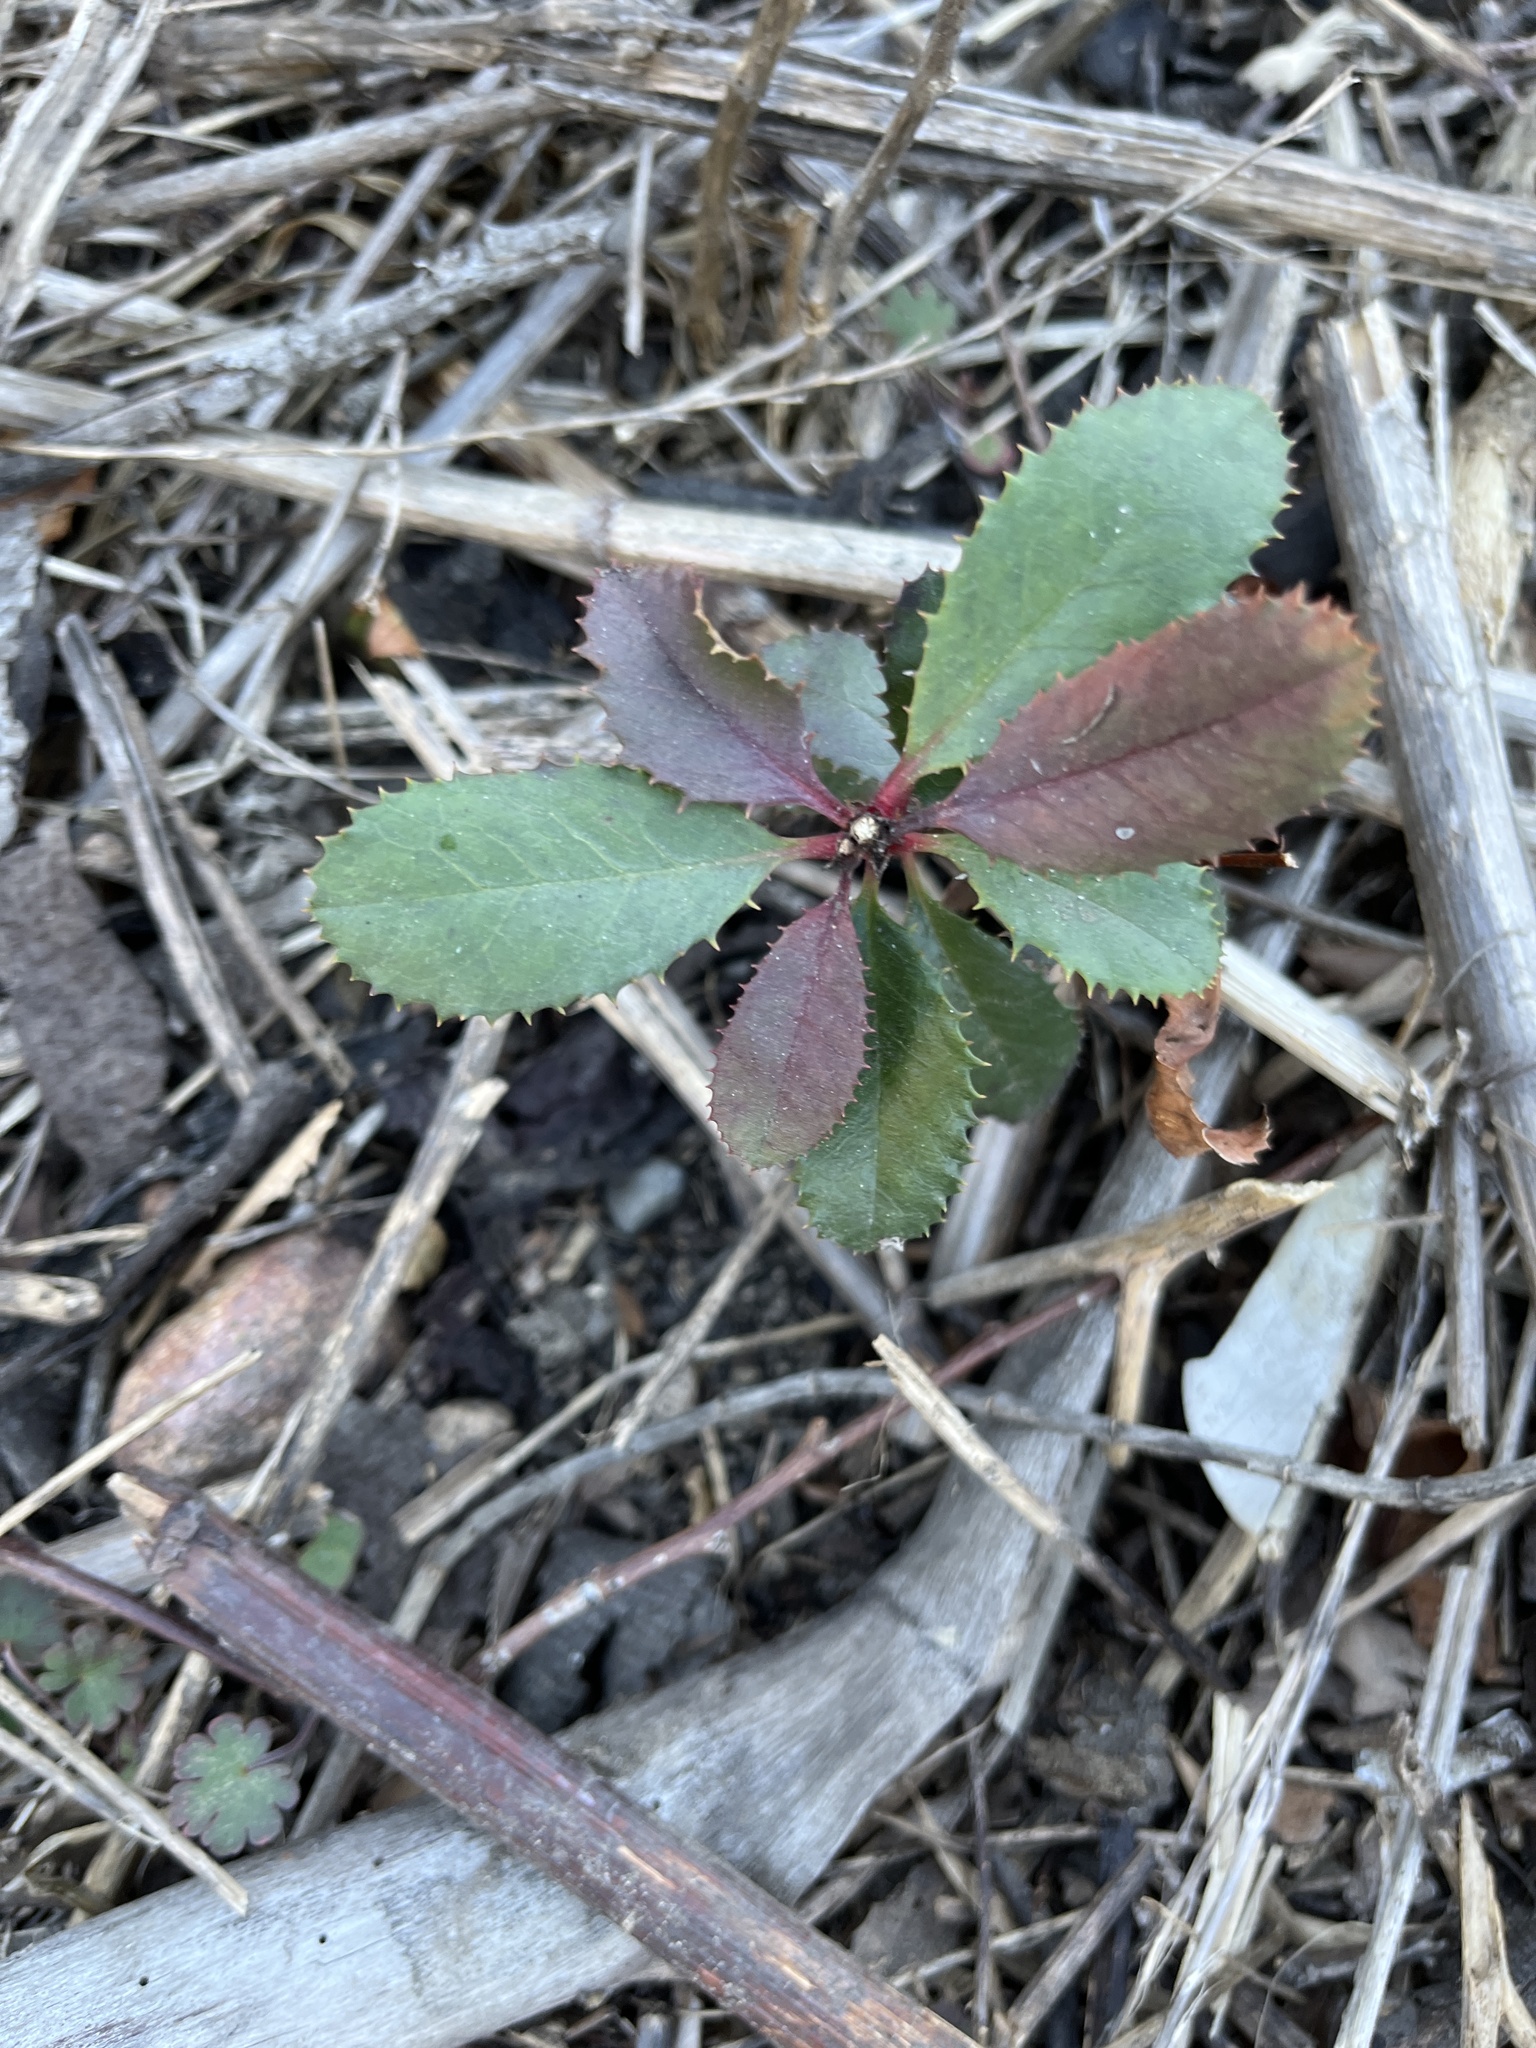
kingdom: Plantae
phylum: Tracheophyta
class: Magnoliopsida
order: Rosales
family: Rosaceae
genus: Heteromeles
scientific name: Heteromeles arbutifolia
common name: California-holly
